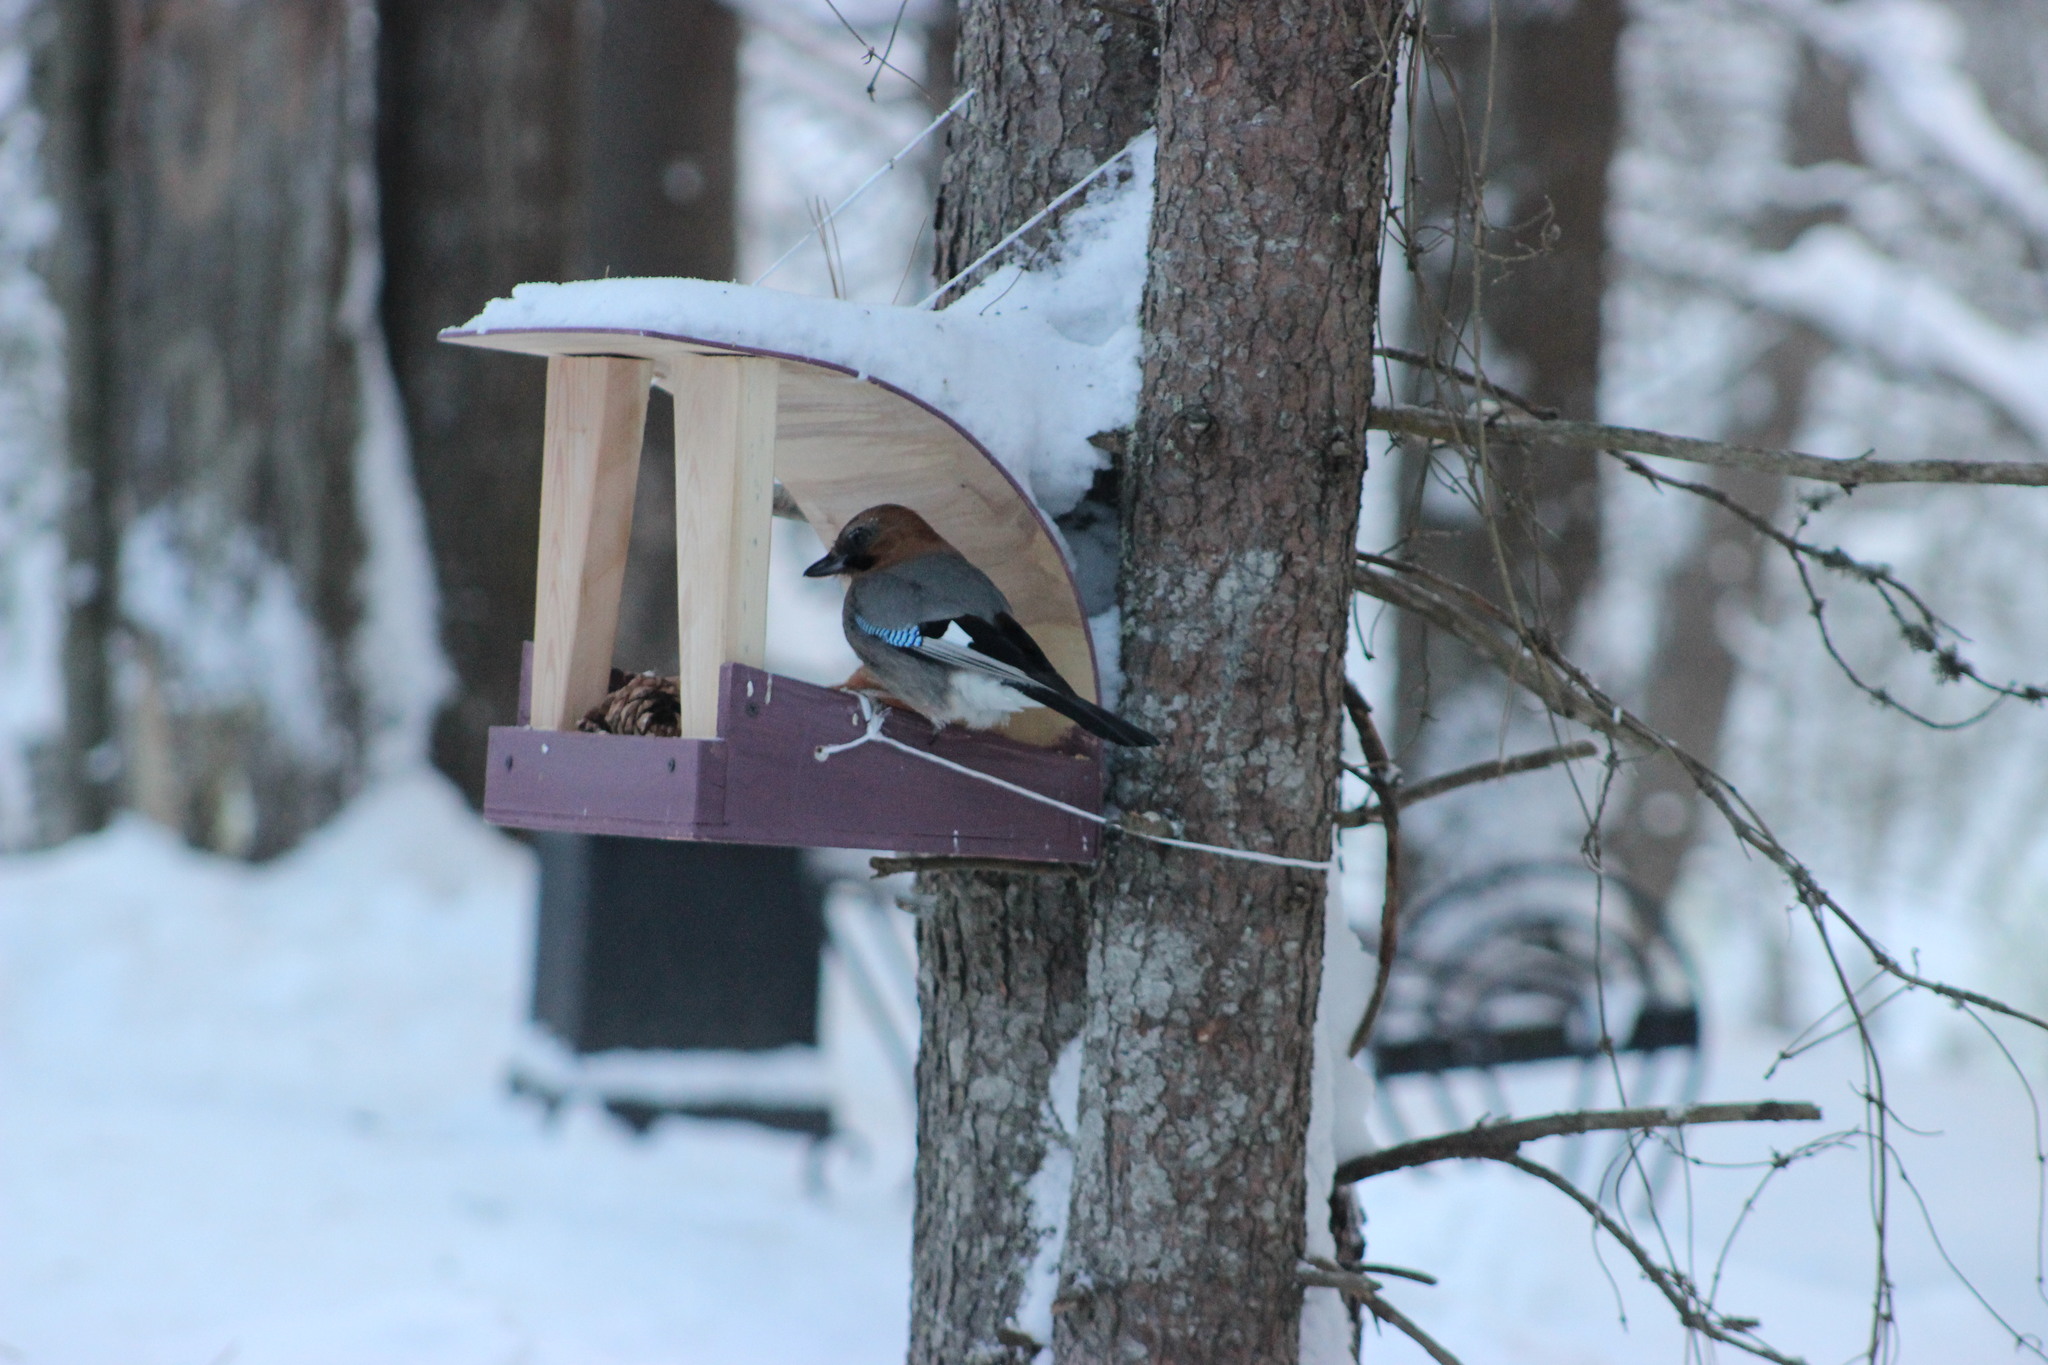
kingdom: Animalia
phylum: Chordata
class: Aves
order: Passeriformes
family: Corvidae
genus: Garrulus
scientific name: Garrulus glandarius
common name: Eurasian jay
